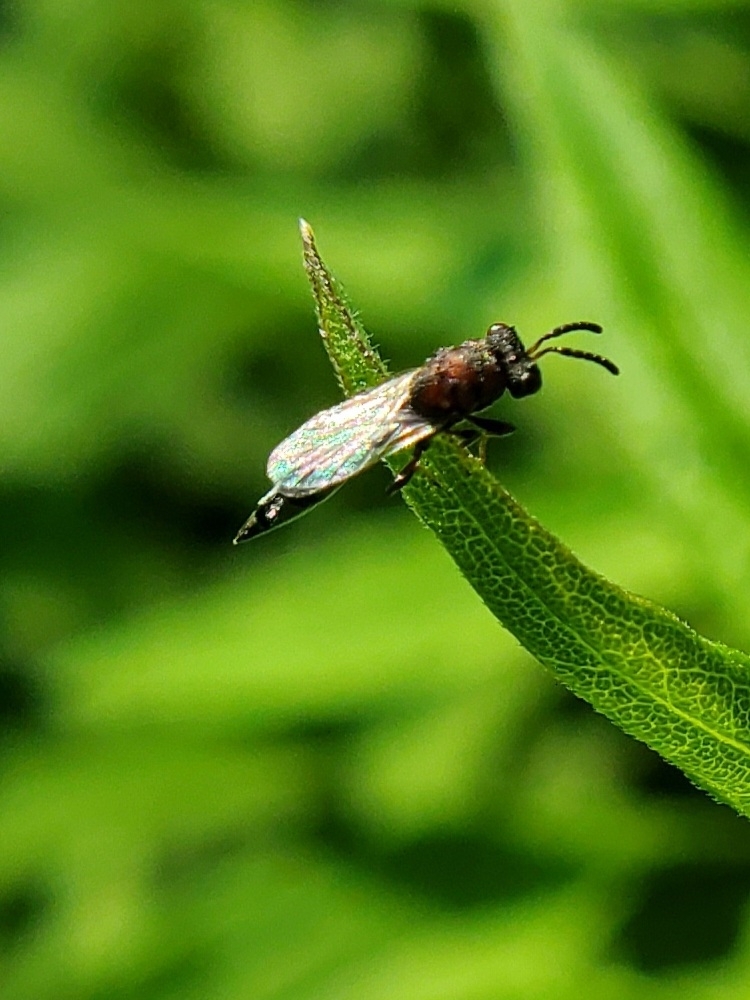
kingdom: Animalia
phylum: Arthropoda
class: Insecta
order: Hymenoptera
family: Eurytomidae
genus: Axima
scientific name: Axima zabriskiei
